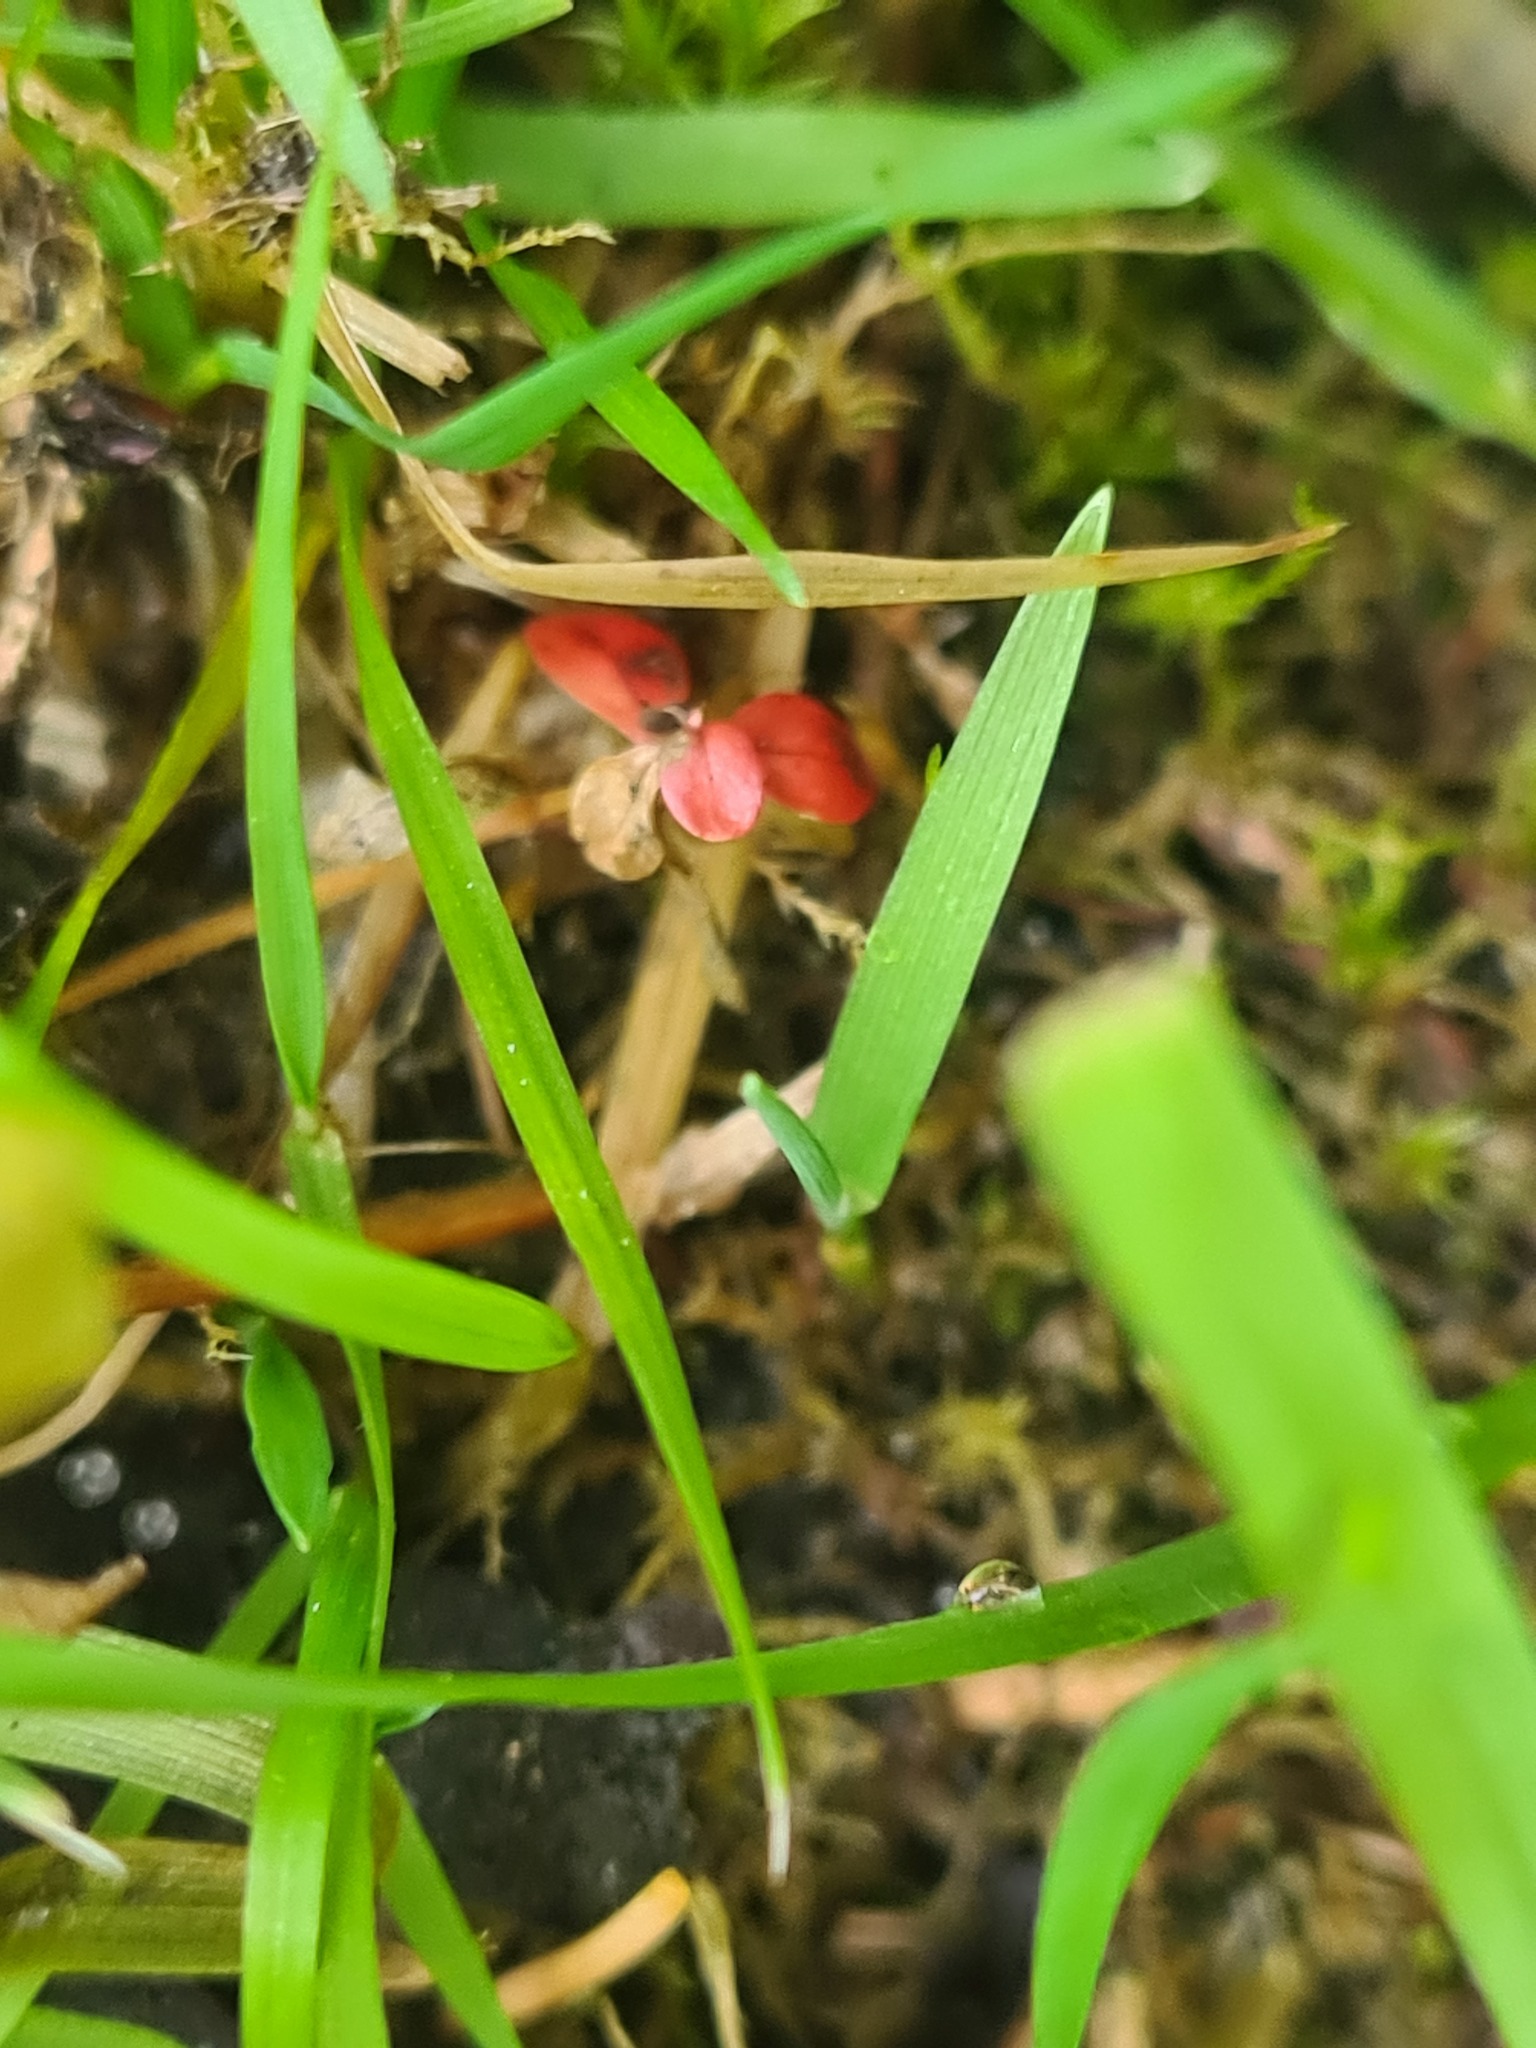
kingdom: Plantae
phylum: Tracheophyta
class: Magnoliopsida
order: Ericales
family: Ericaceae
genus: Vaccinium
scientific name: Vaccinium vitis-idaea
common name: Cowberry
